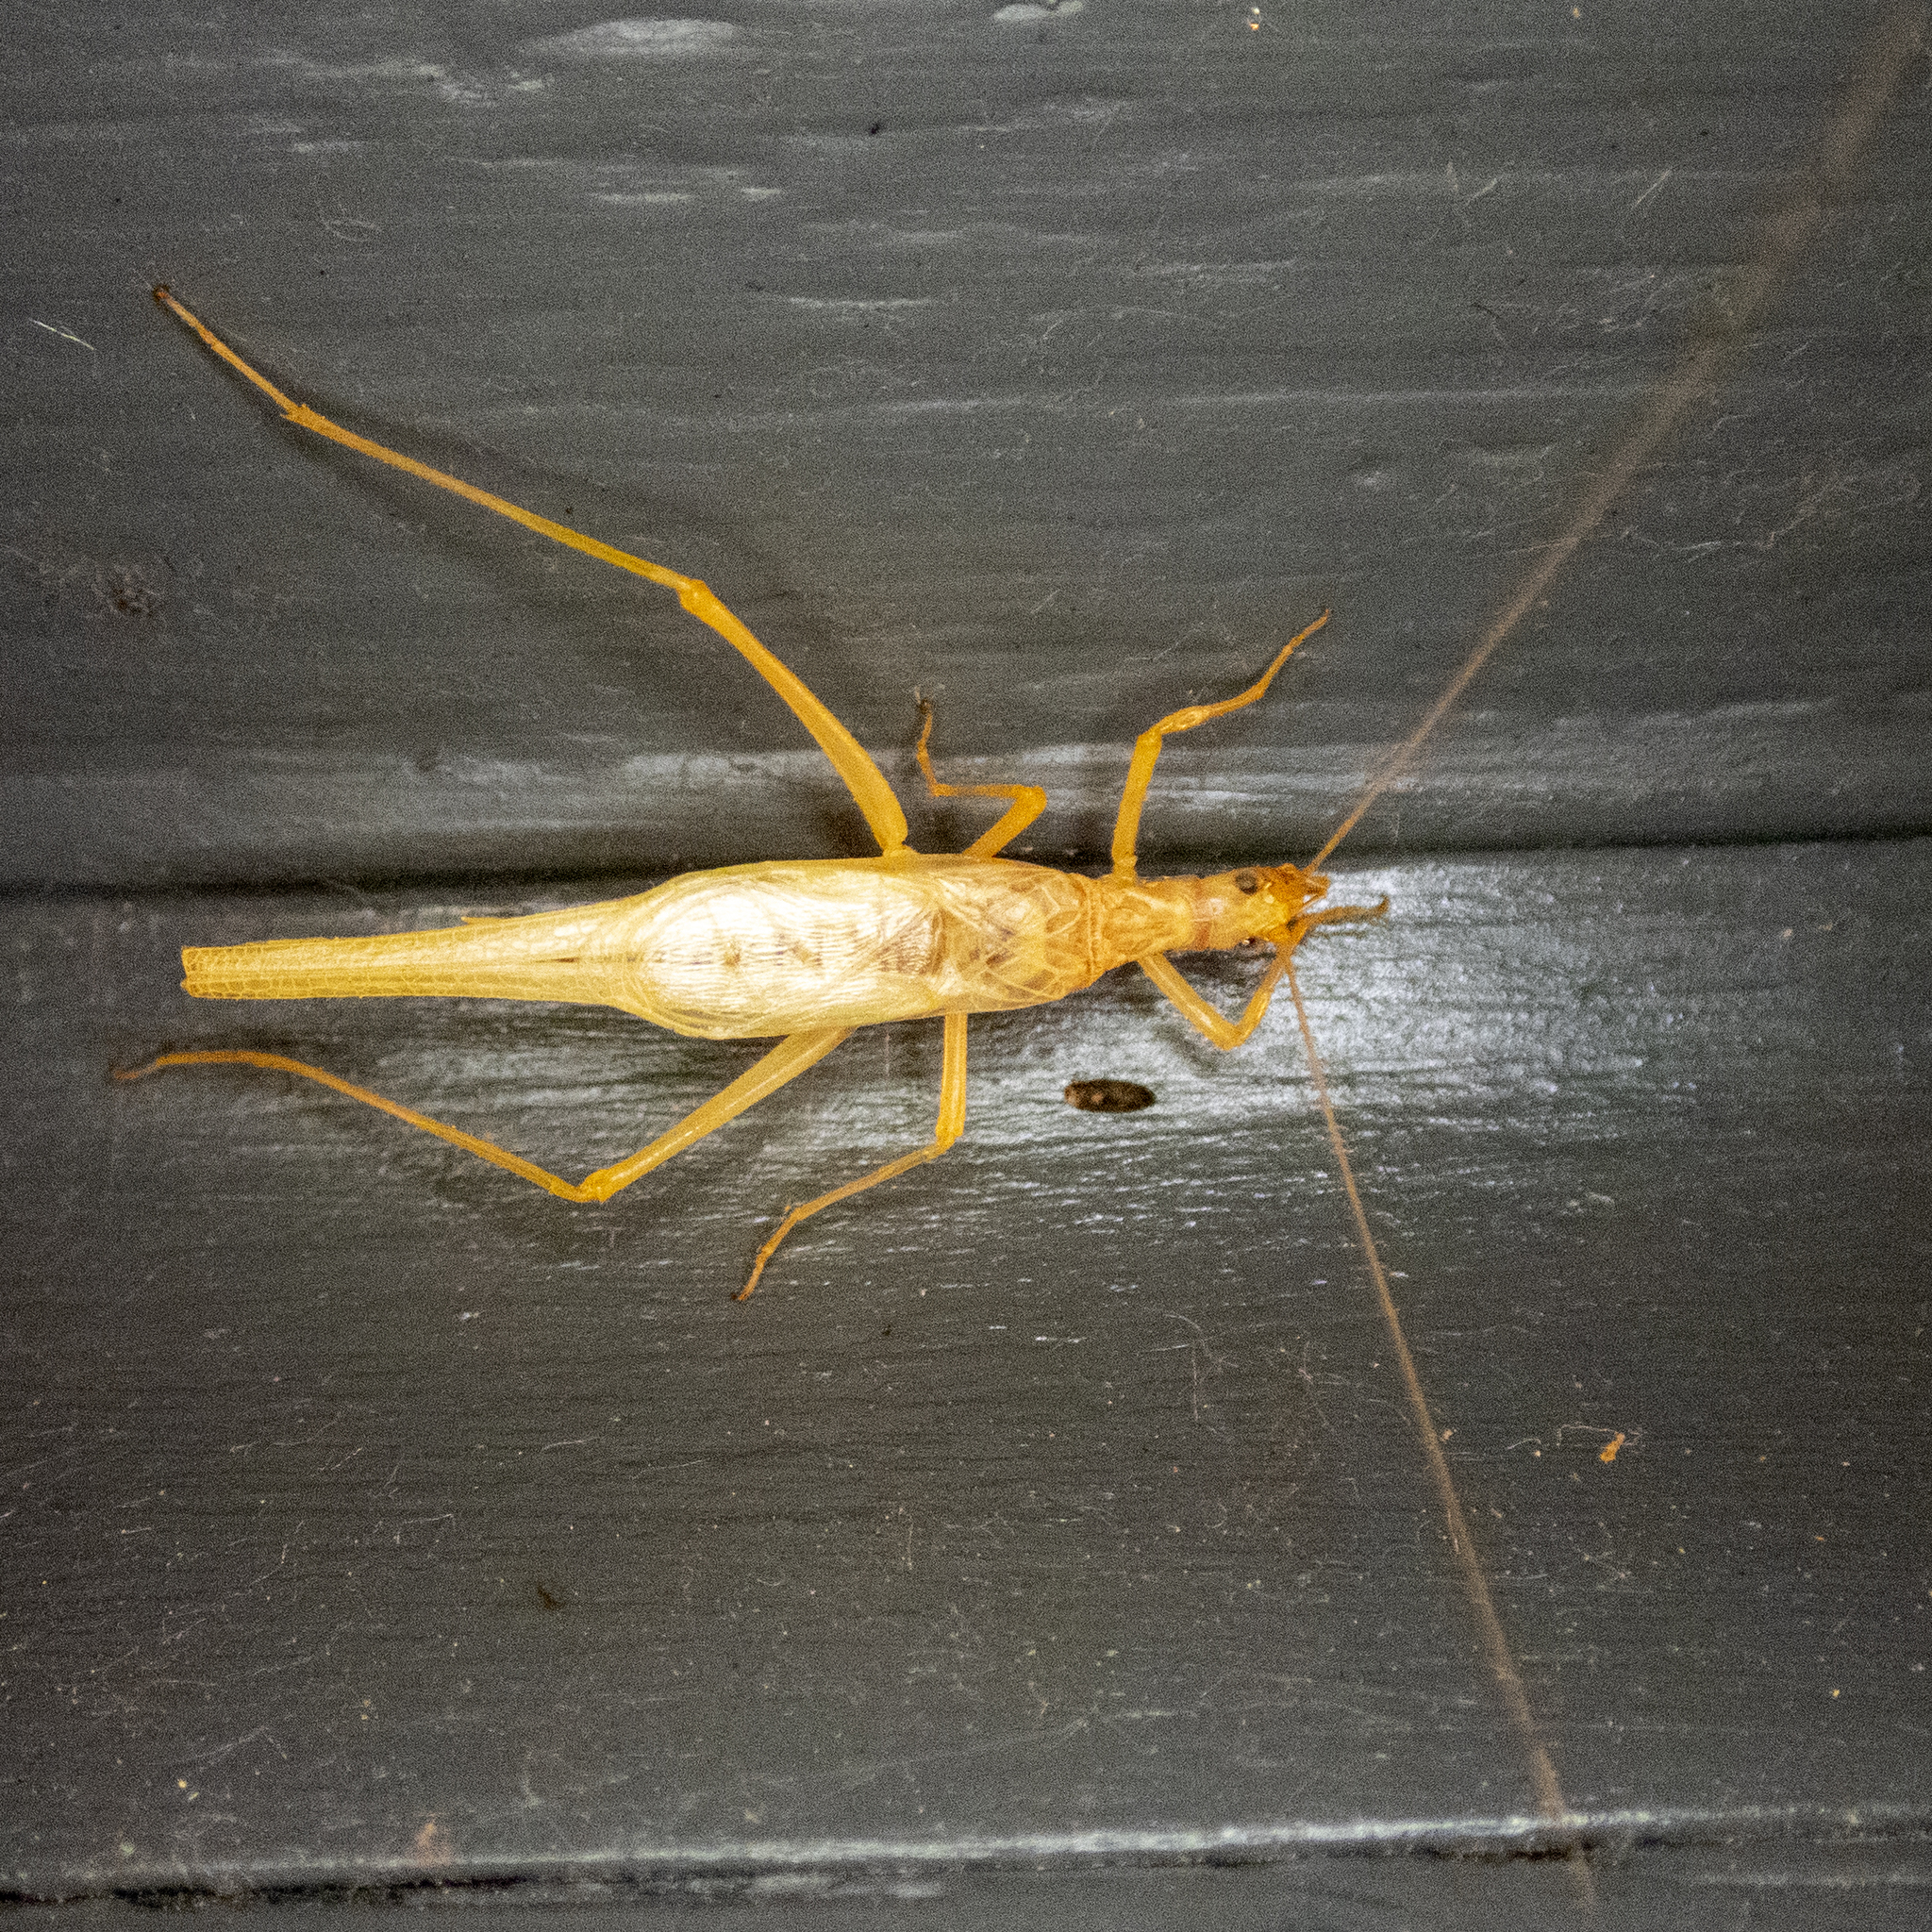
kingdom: Animalia
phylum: Arthropoda
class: Insecta
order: Orthoptera
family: Gryllidae
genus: Neoxabea
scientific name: Neoxabea bipunctata
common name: Two-spotted tree cricket
